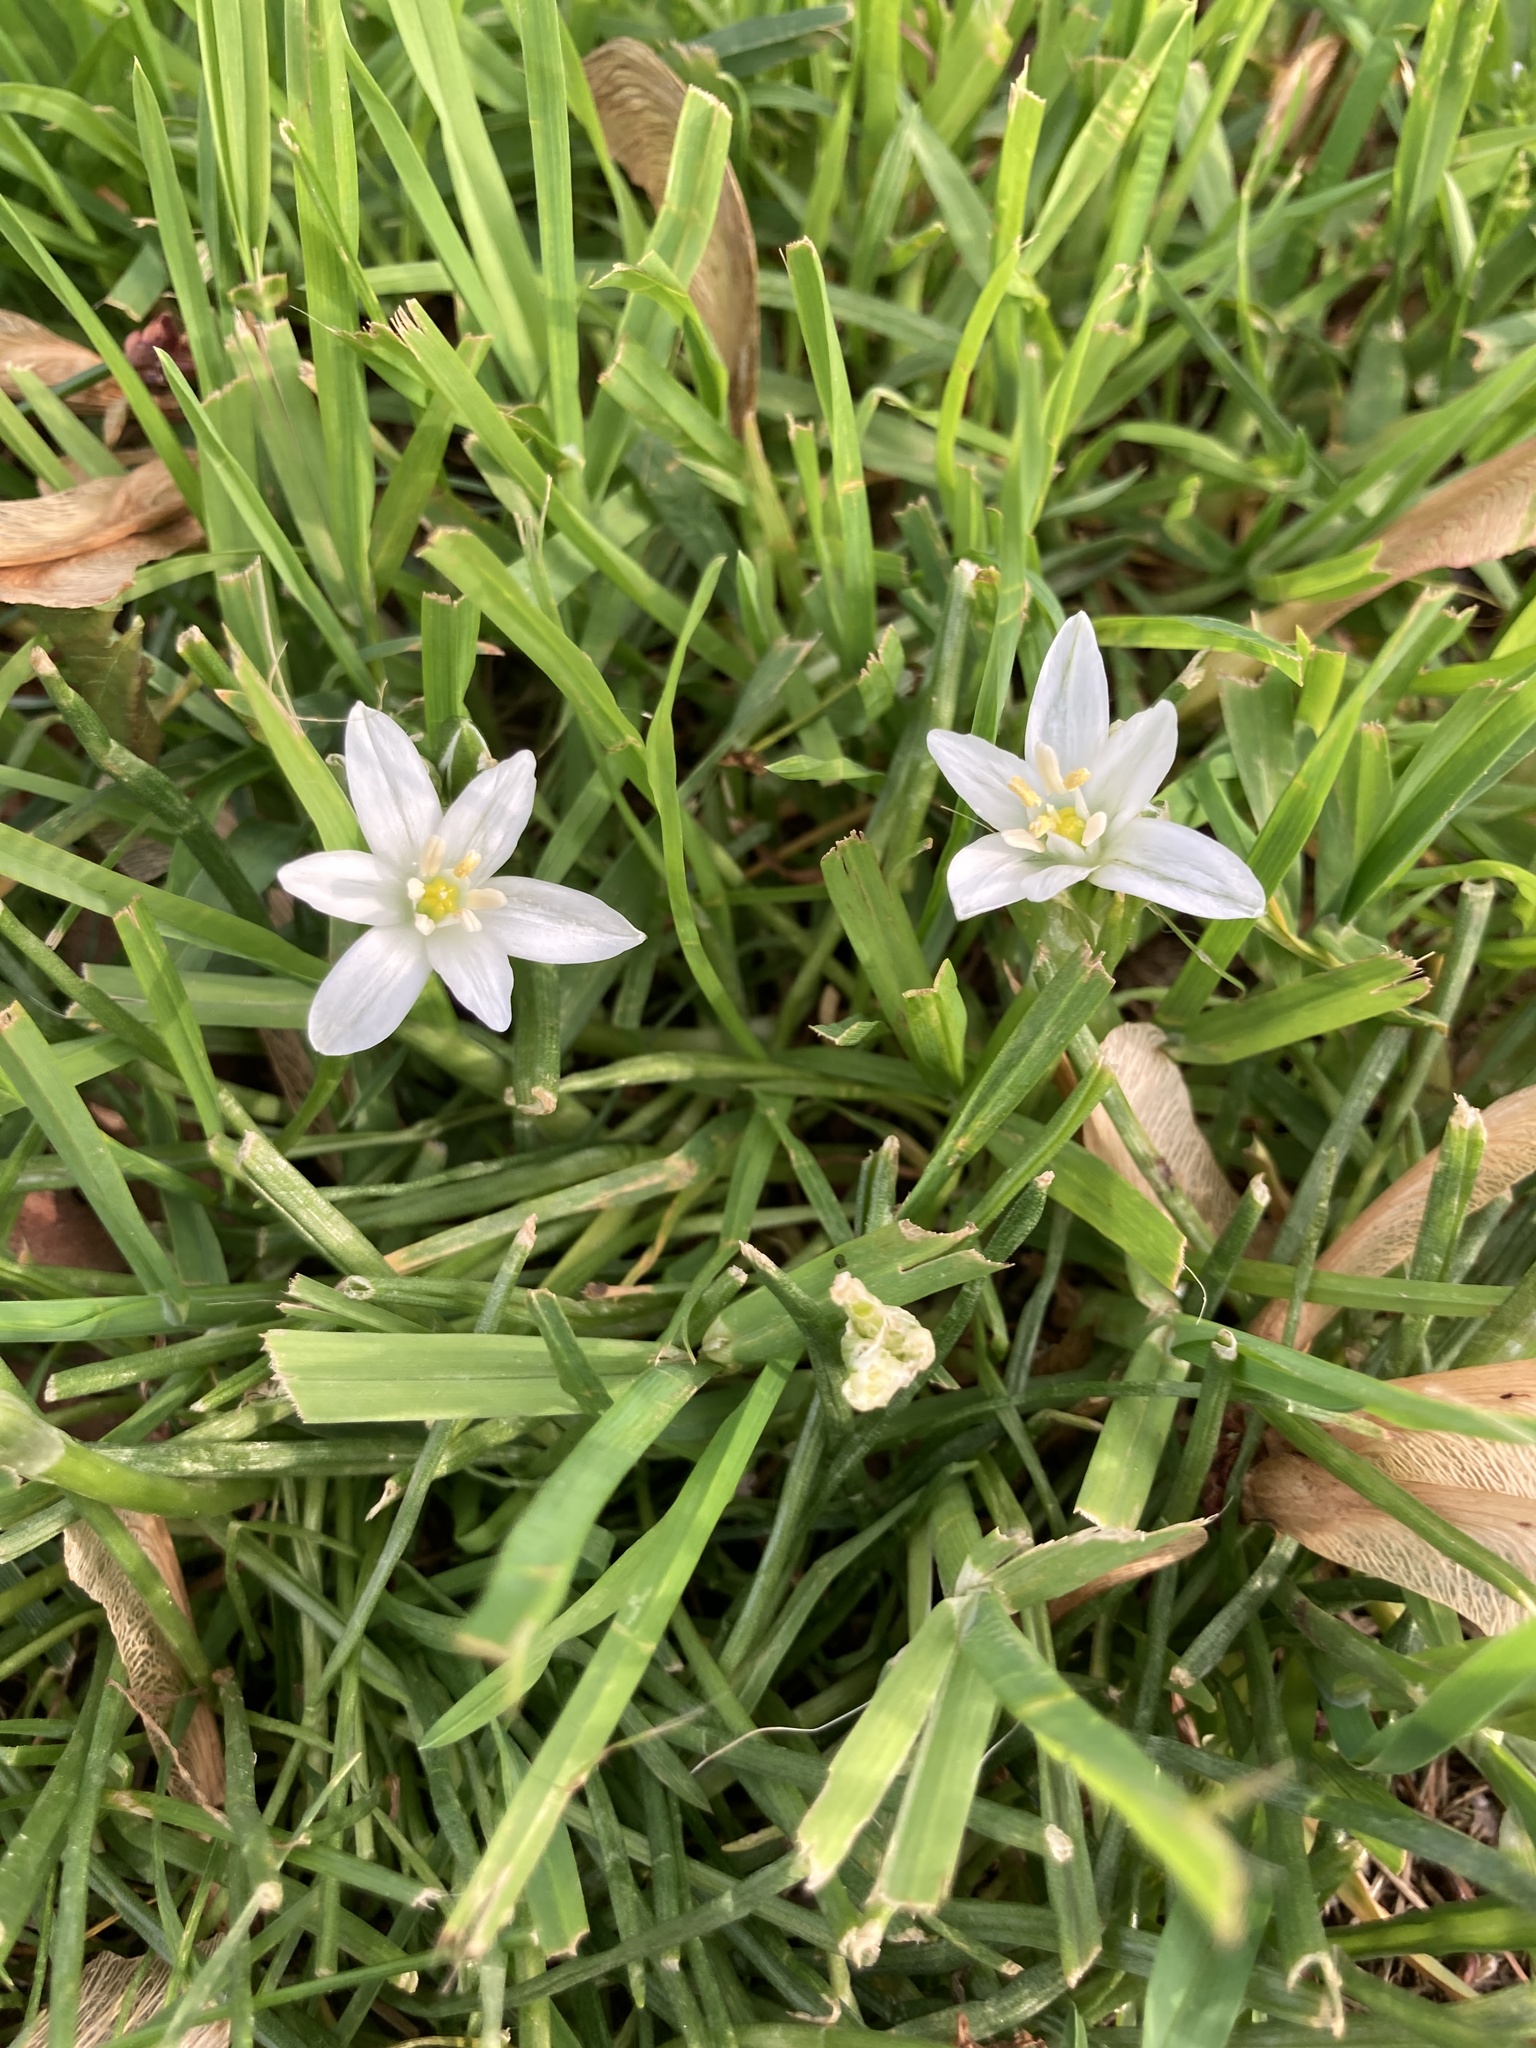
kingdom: Plantae
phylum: Tracheophyta
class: Liliopsida
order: Asparagales
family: Asparagaceae
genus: Ornithogalum
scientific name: Ornithogalum umbellatum
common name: Garden star-of-bethlehem
